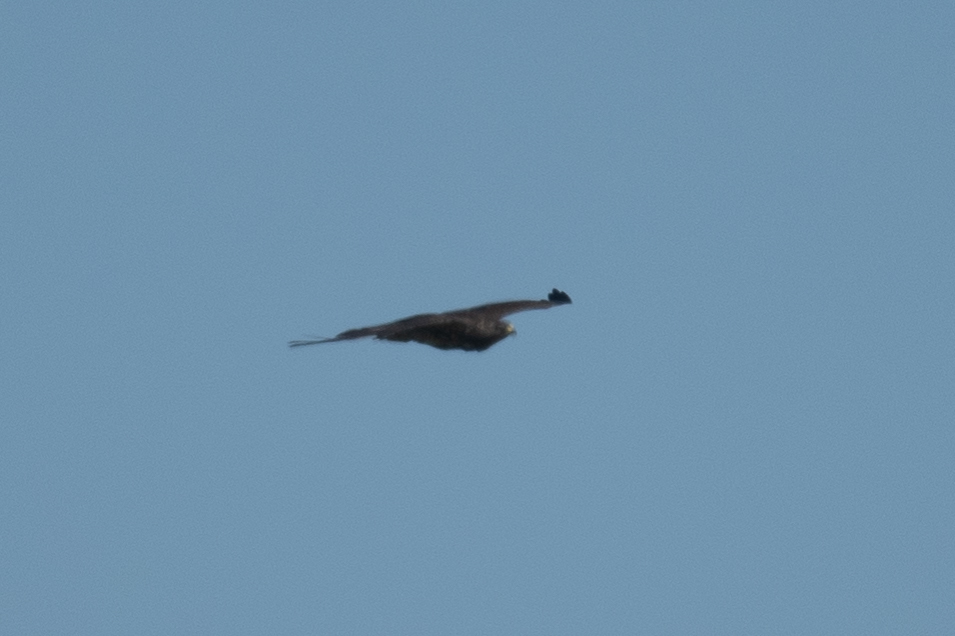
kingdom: Animalia
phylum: Chordata
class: Aves
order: Accipitriformes
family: Accipitridae
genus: Buteo
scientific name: Buteo swainsoni
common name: Swainson's hawk
